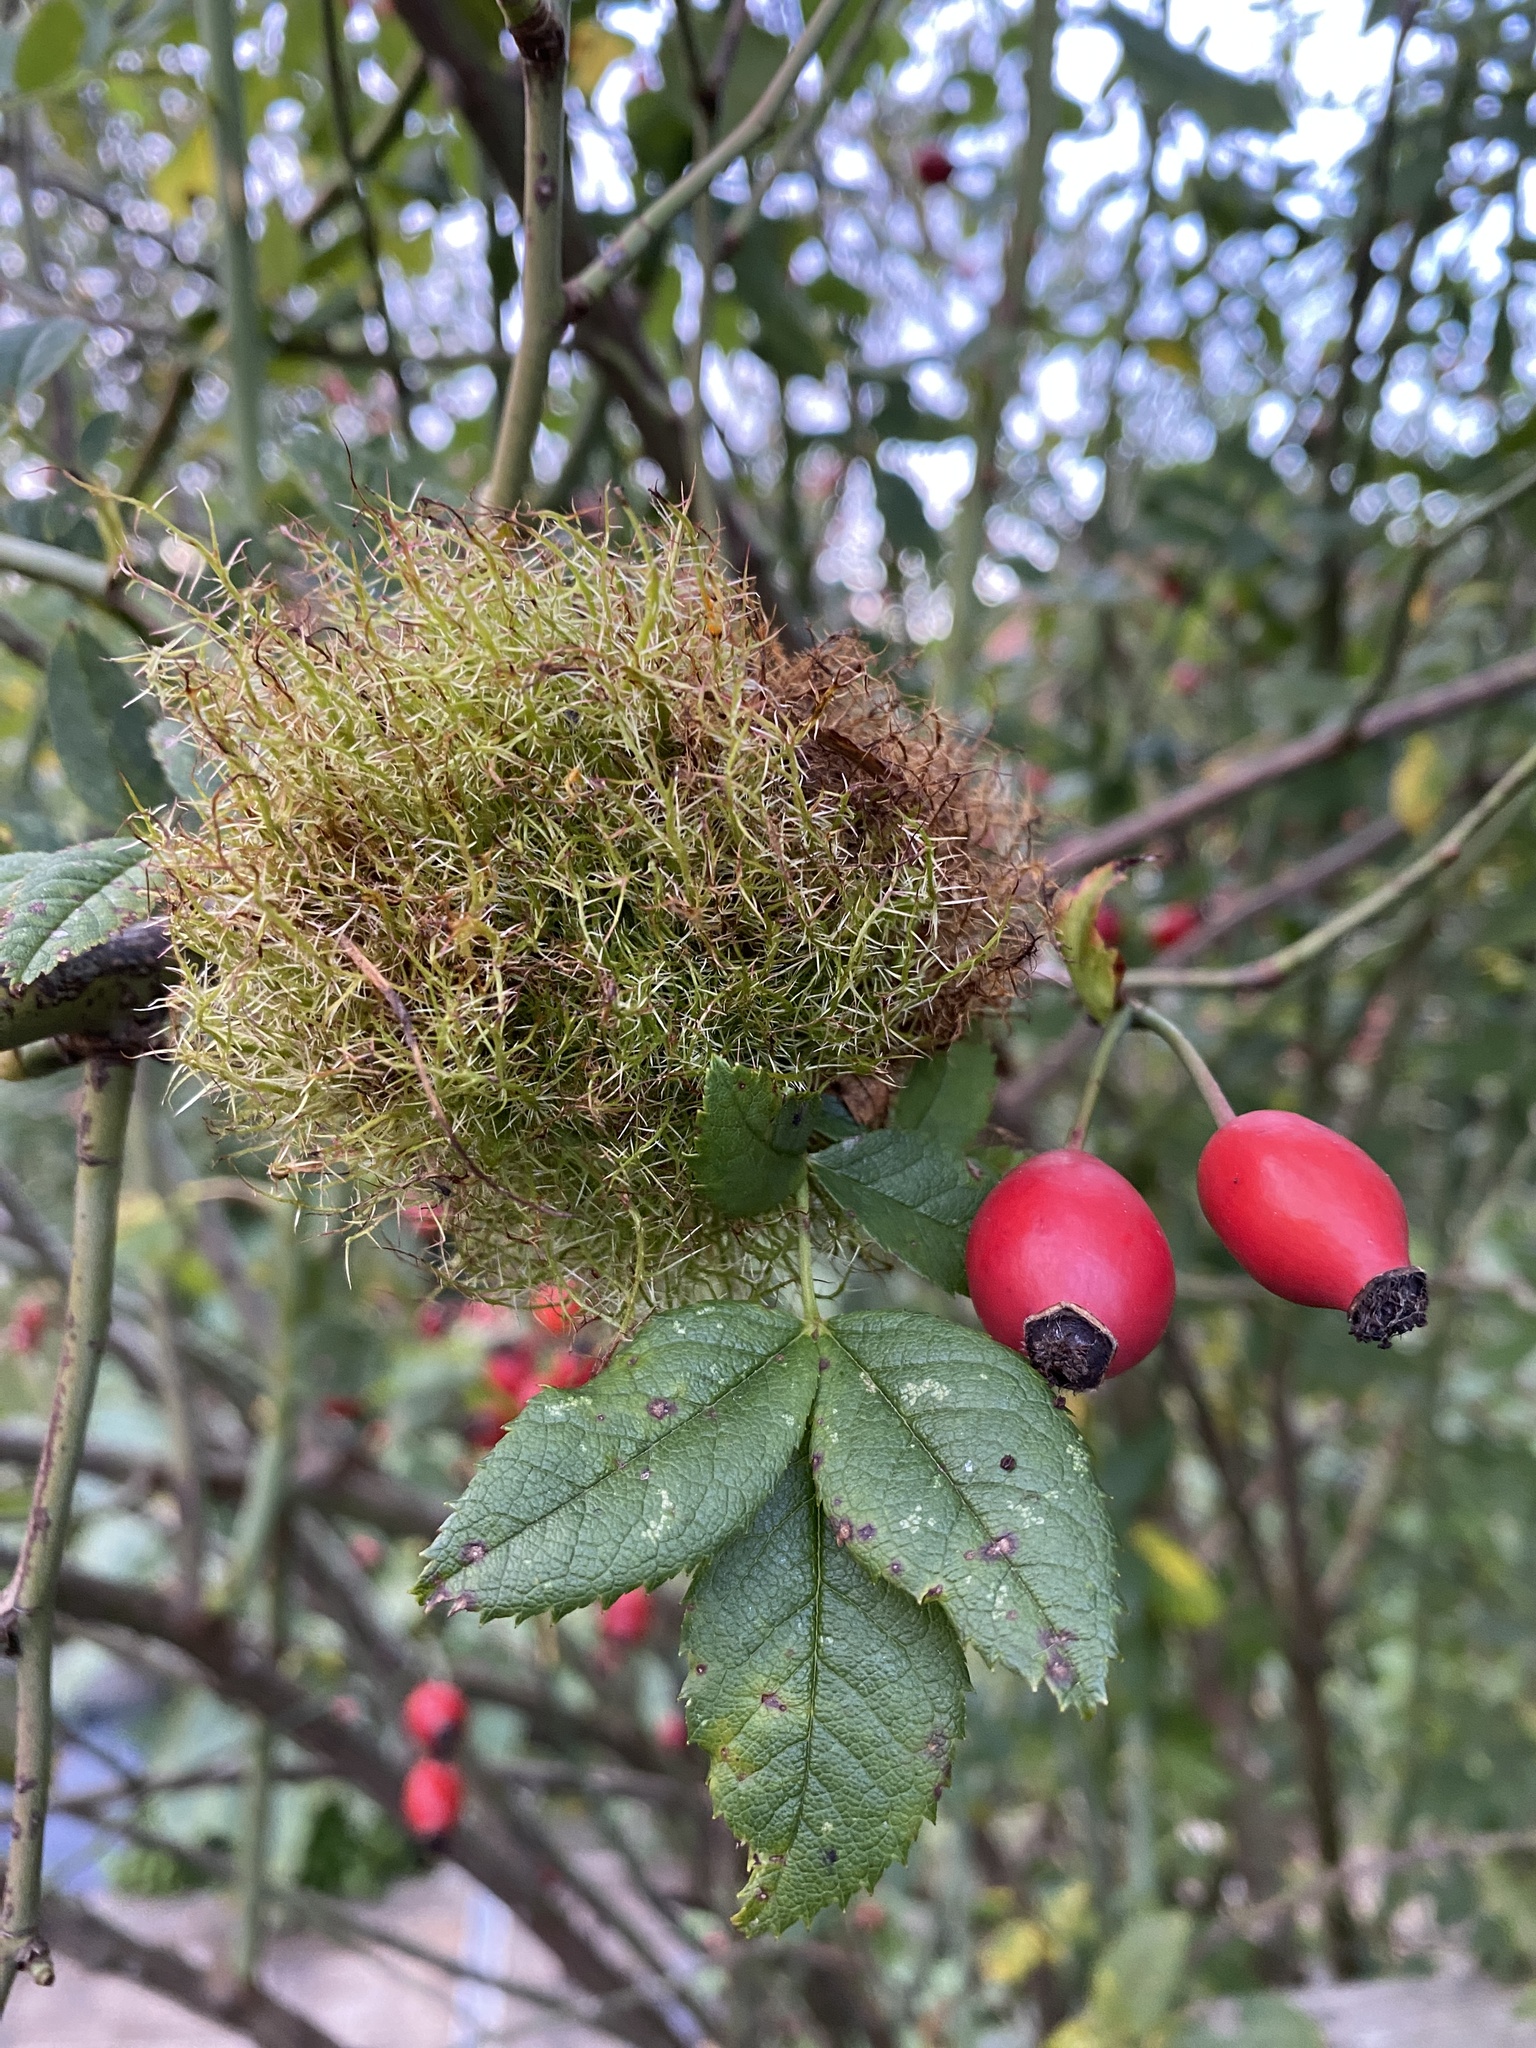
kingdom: Animalia
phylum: Arthropoda
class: Insecta
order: Hymenoptera
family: Cynipidae
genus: Diplolepis
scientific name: Diplolepis rosae
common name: Bedeguar gall
